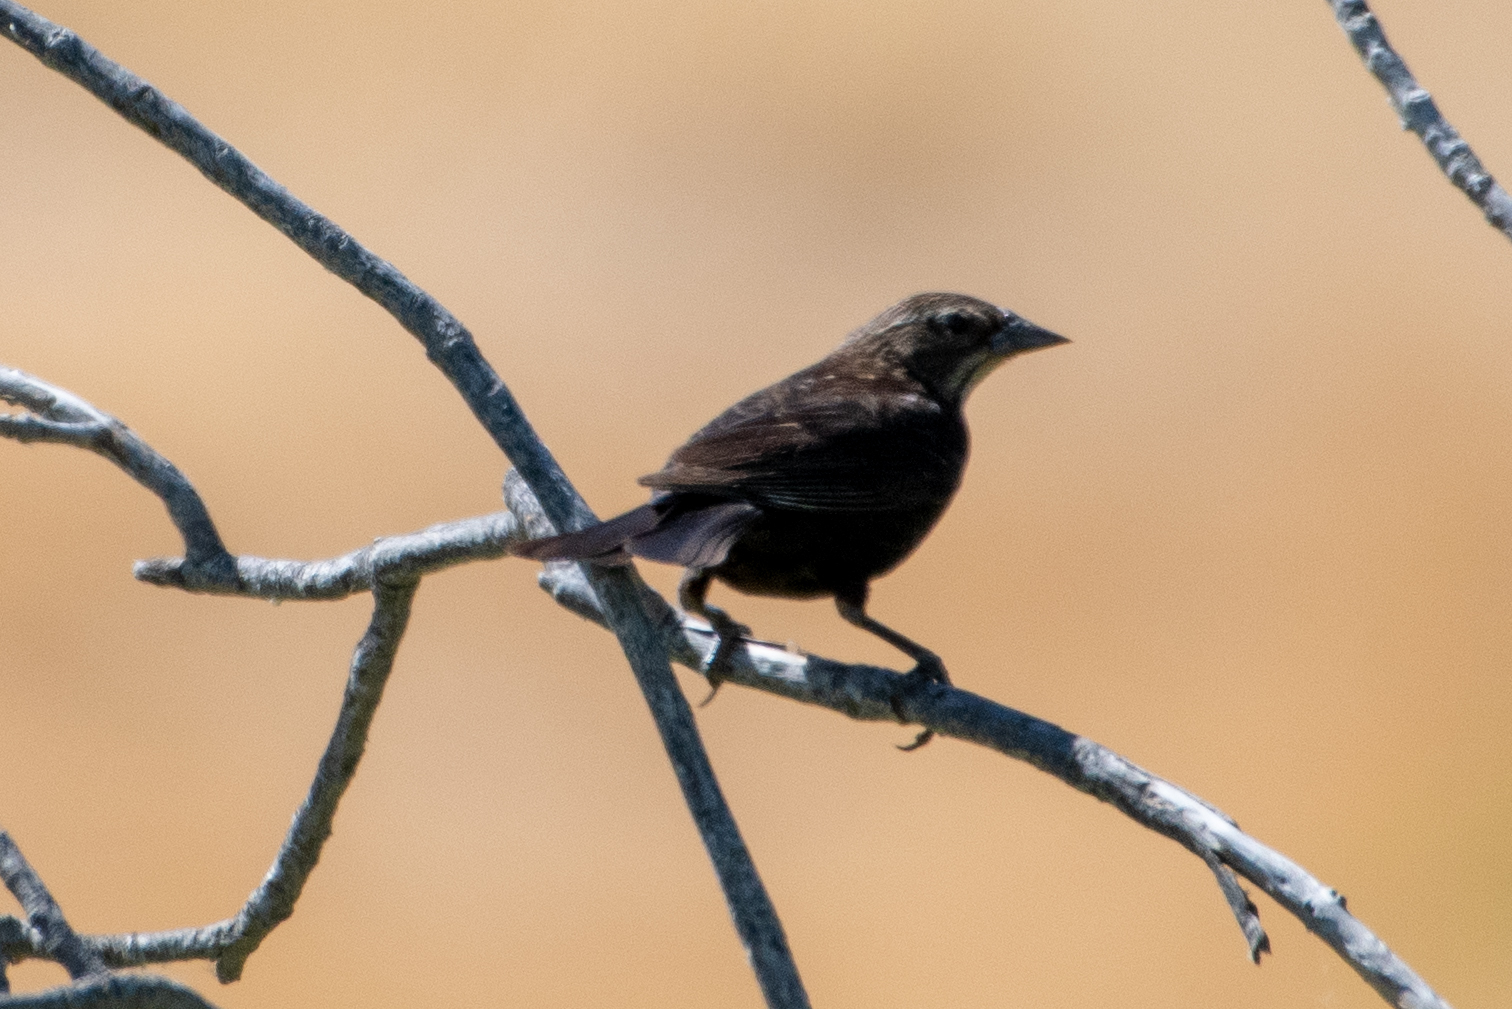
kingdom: Animalia
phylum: Chordata
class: Aves
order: Passeriformes
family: Icteridae
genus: Agelaius
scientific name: Agelaius
